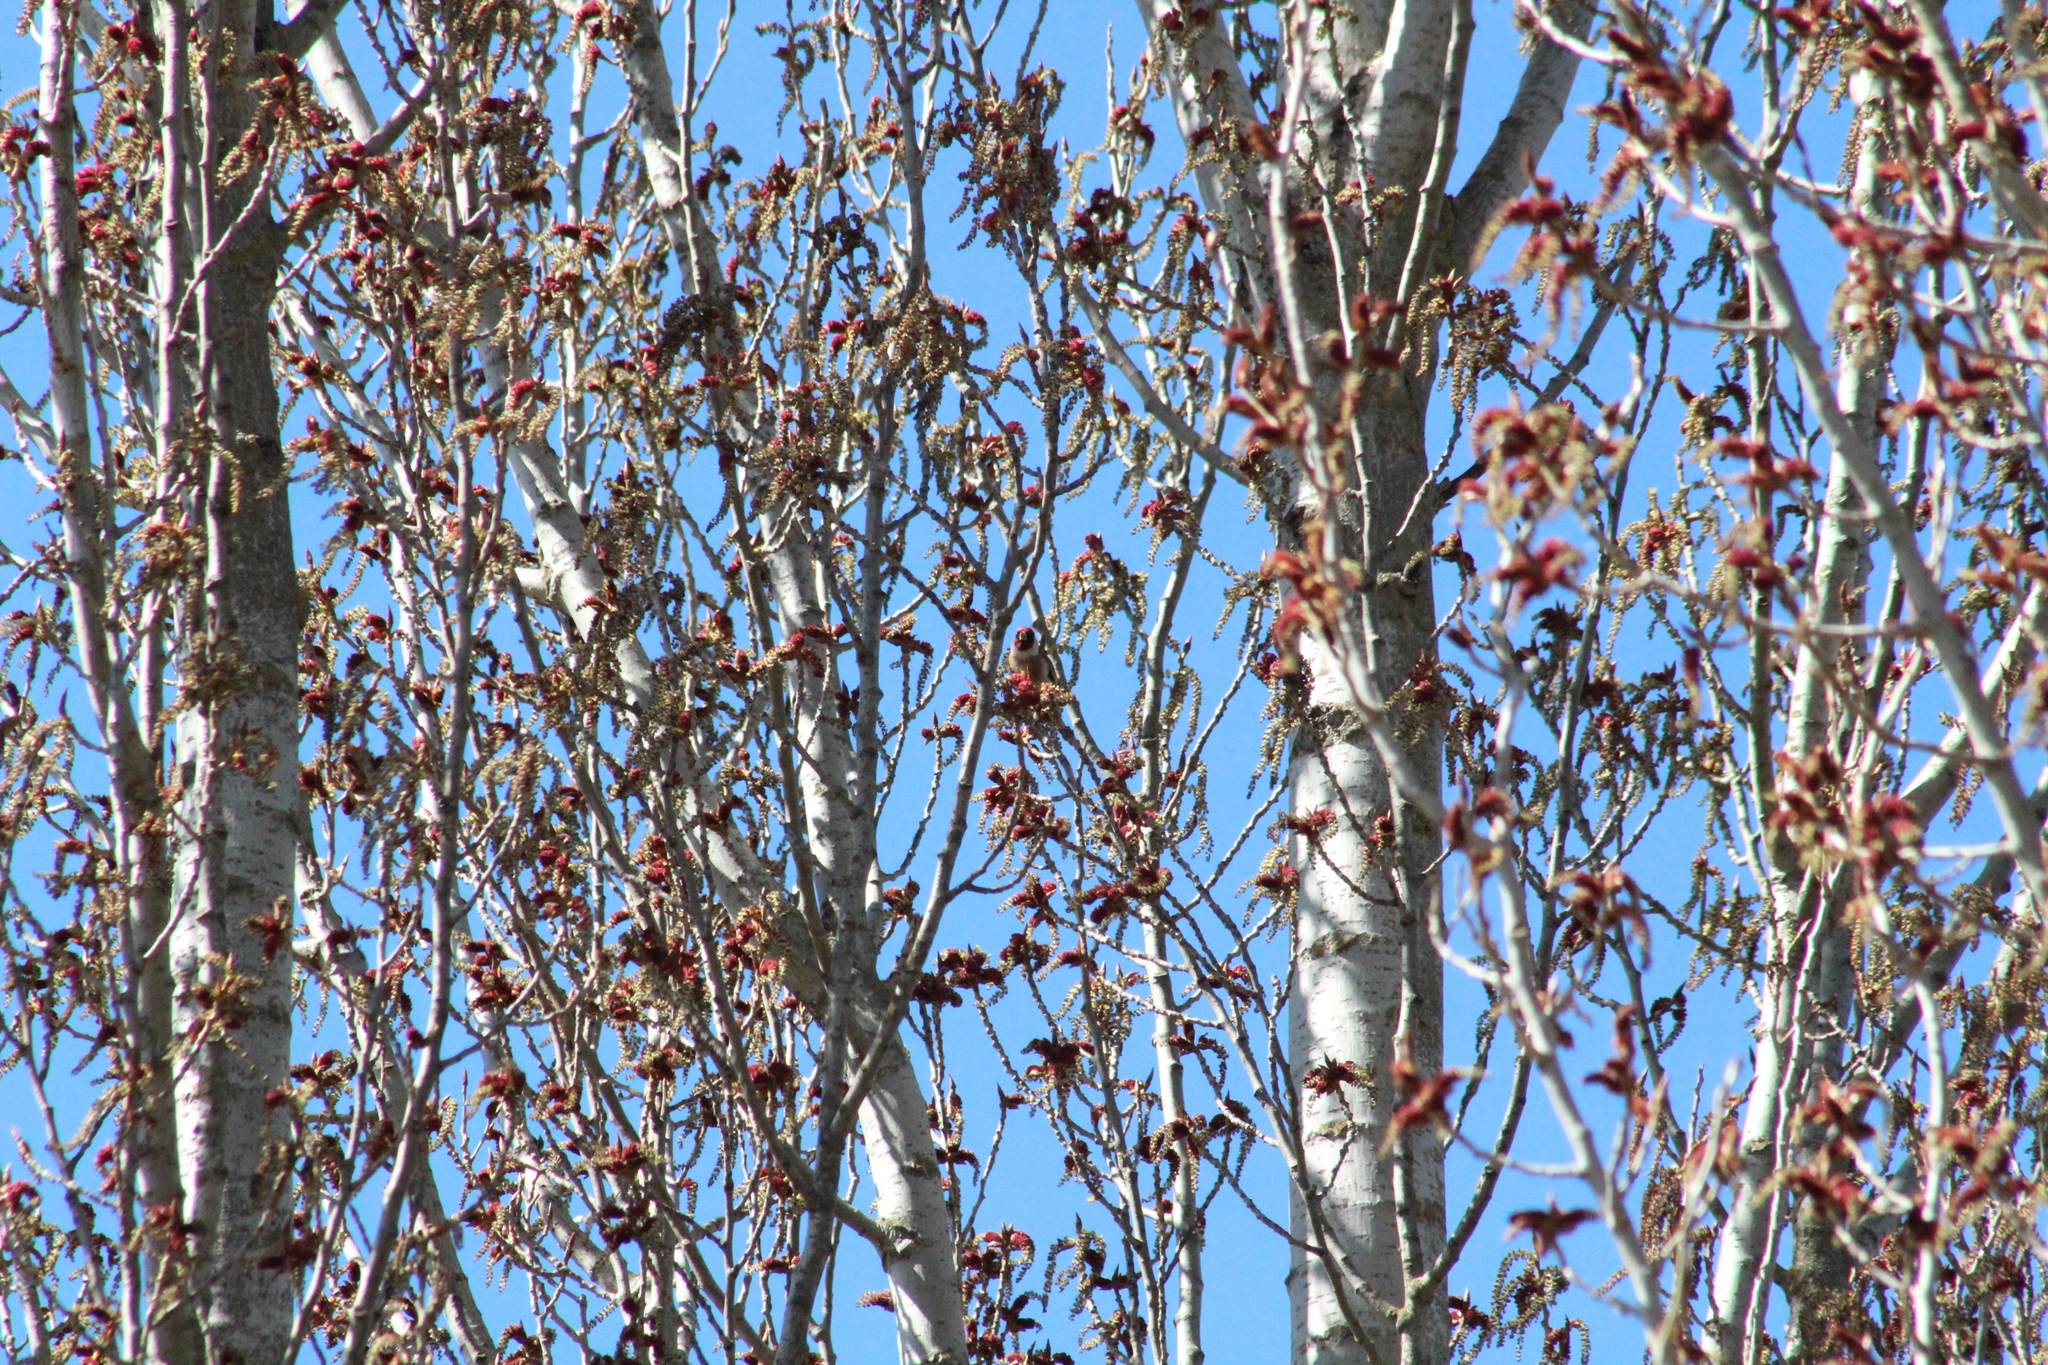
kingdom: Animalia
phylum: Chordata
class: Aves
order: Passeriformes
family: Fringillidae
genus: Carduelis
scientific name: Carduelis carduelis
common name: European goldfinch
